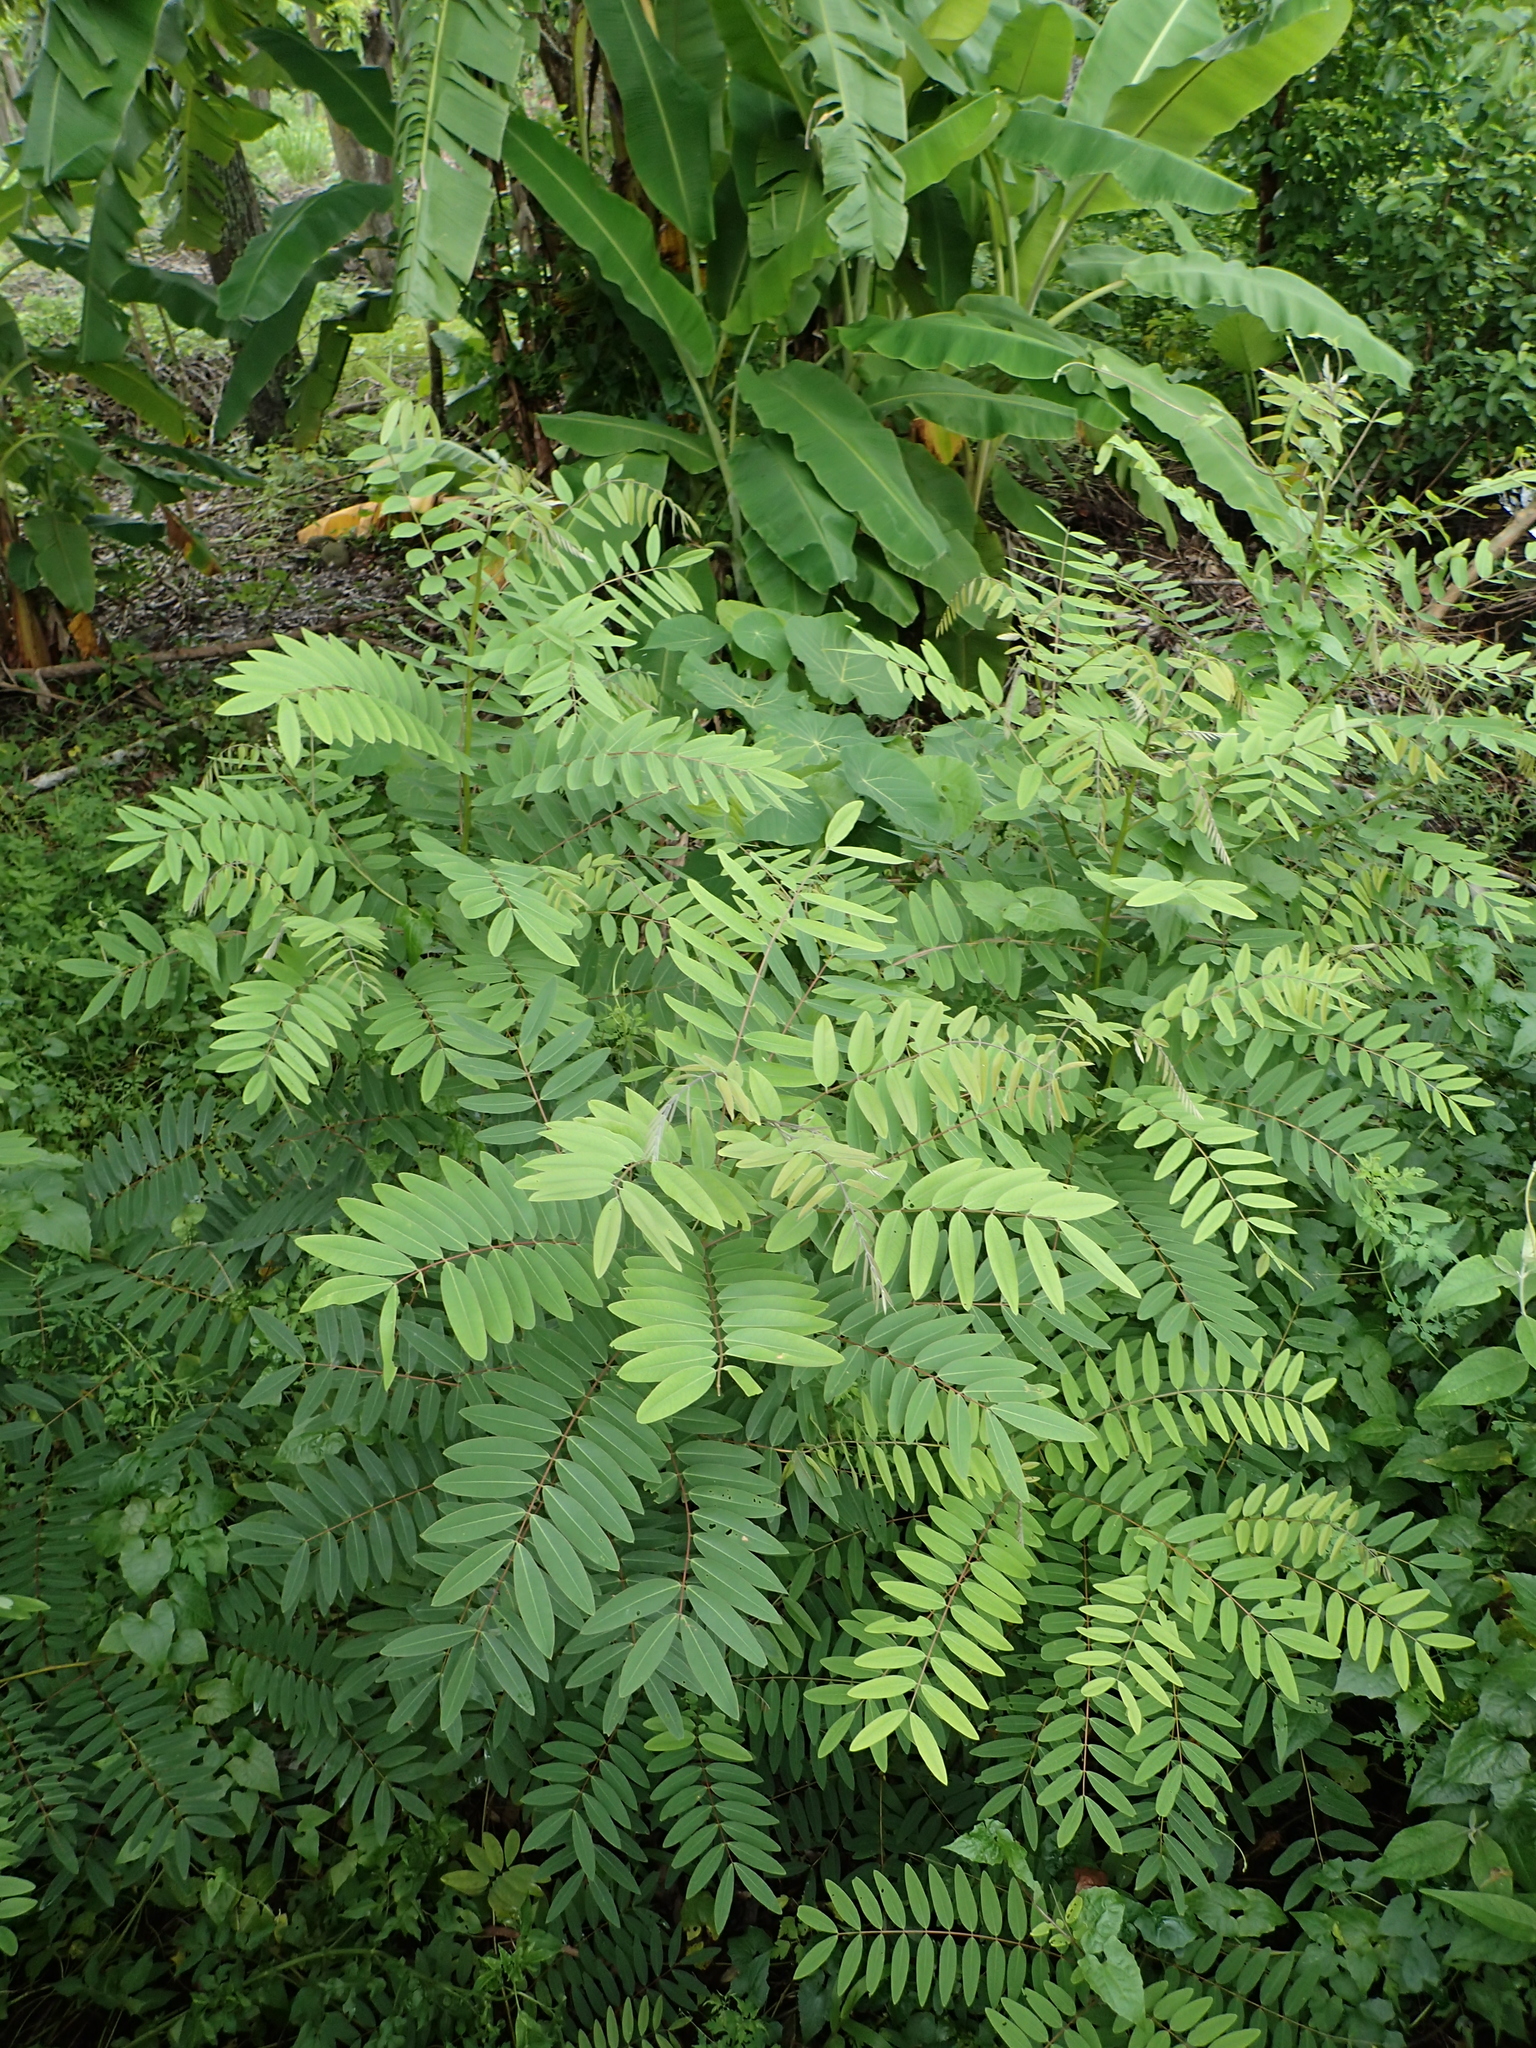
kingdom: Plantae
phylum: Tracheophyta
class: Magnoliopsida
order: Fabales
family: Fabaceae
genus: Senna
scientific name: Senna siamea
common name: Siamese cassia
